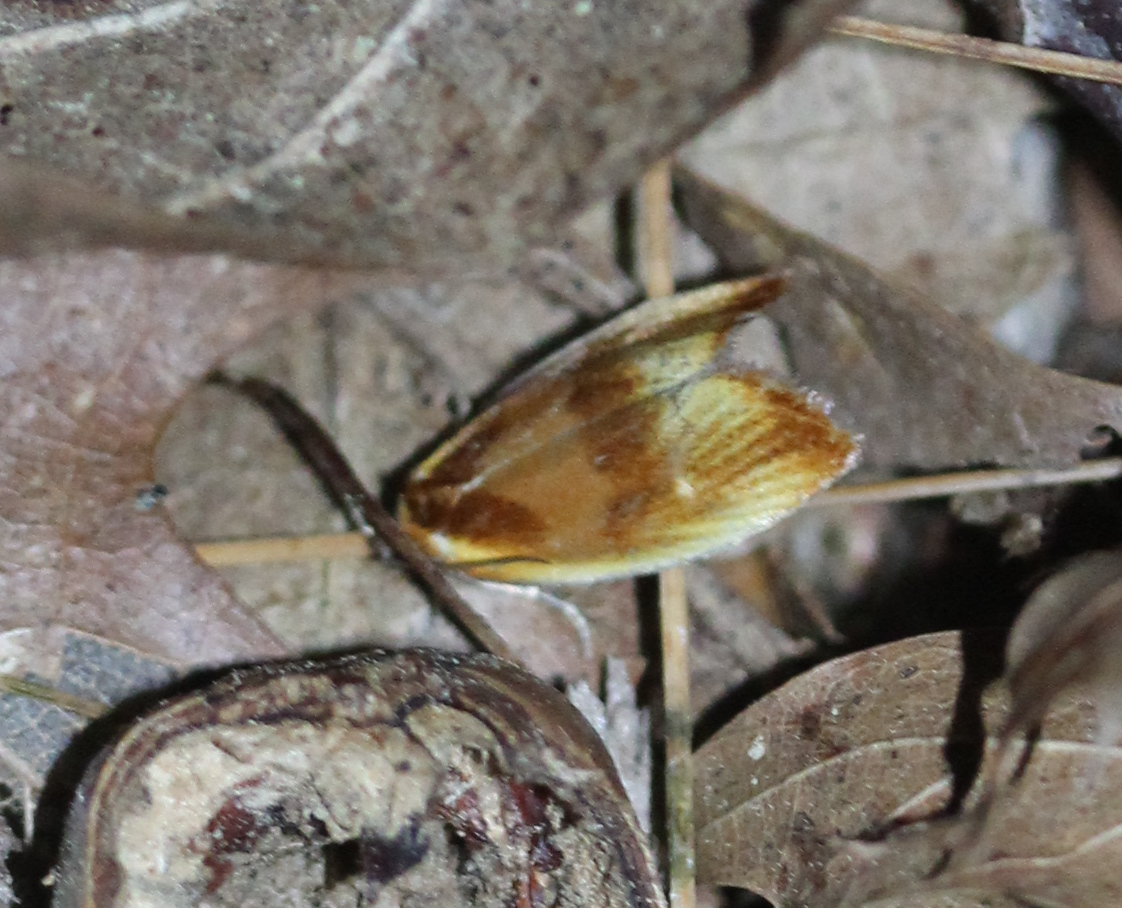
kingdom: Animalia
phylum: Arthropoda
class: Insecta
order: Lepidoptera
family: Tortricidae
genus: Eulia
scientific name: Eulia ministrana
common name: Brassy twist
